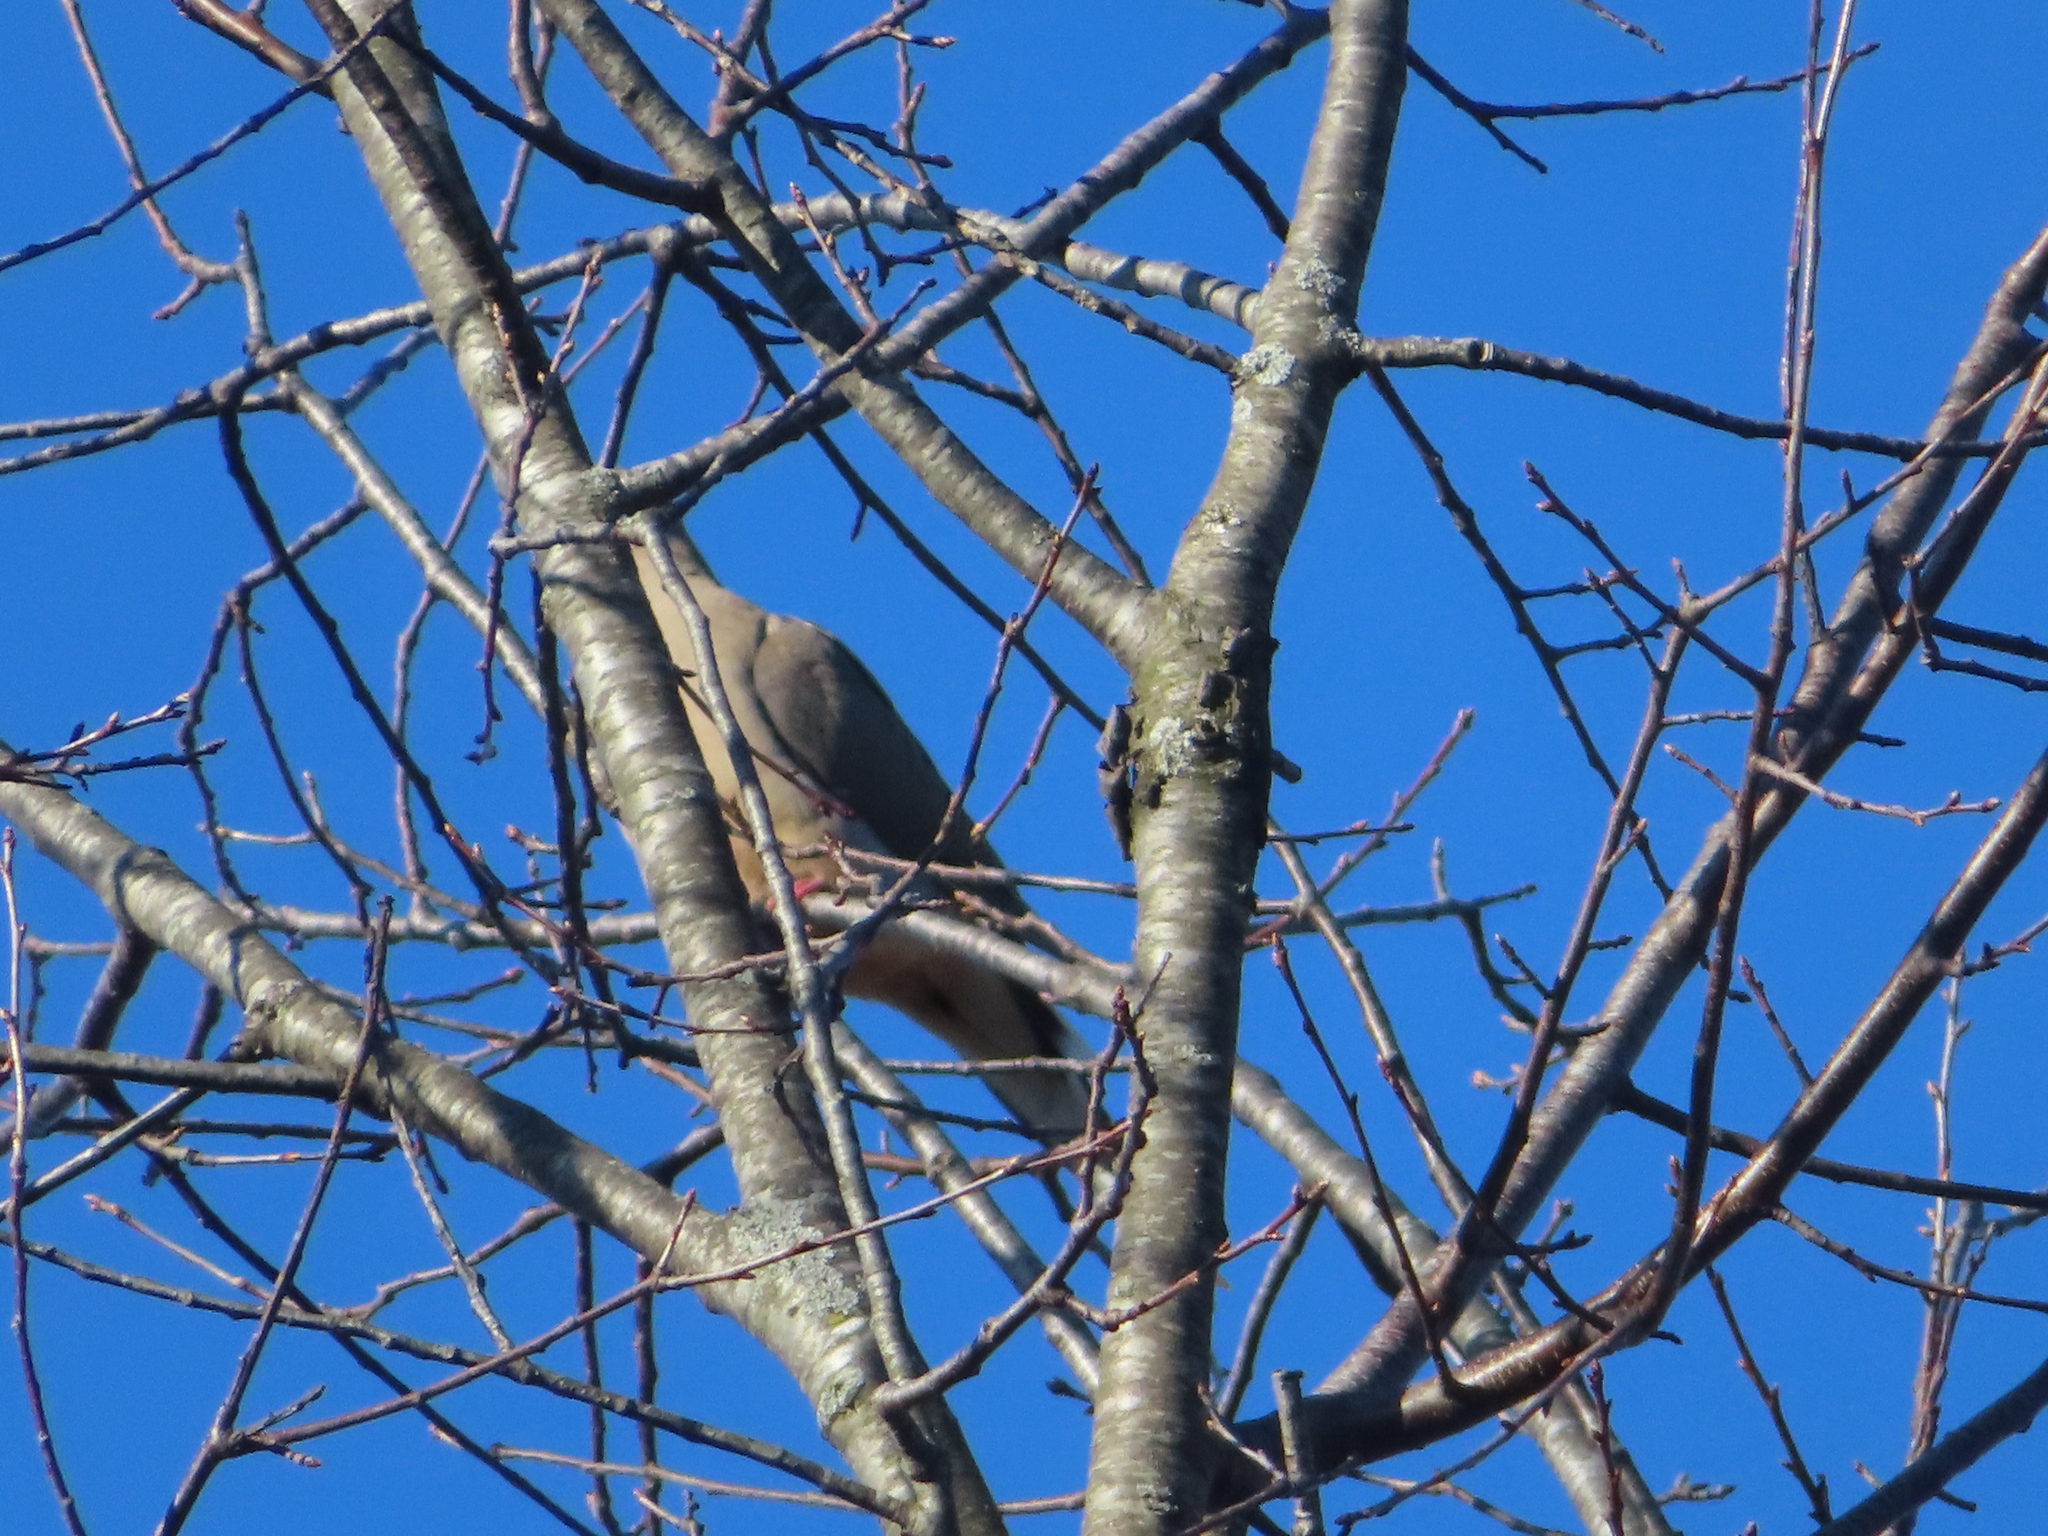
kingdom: Animalia
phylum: Chordata
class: Aves
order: Columbiformes
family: Columbidae
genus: Zenaida
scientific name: Zenaida macroura
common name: Mourning dove
